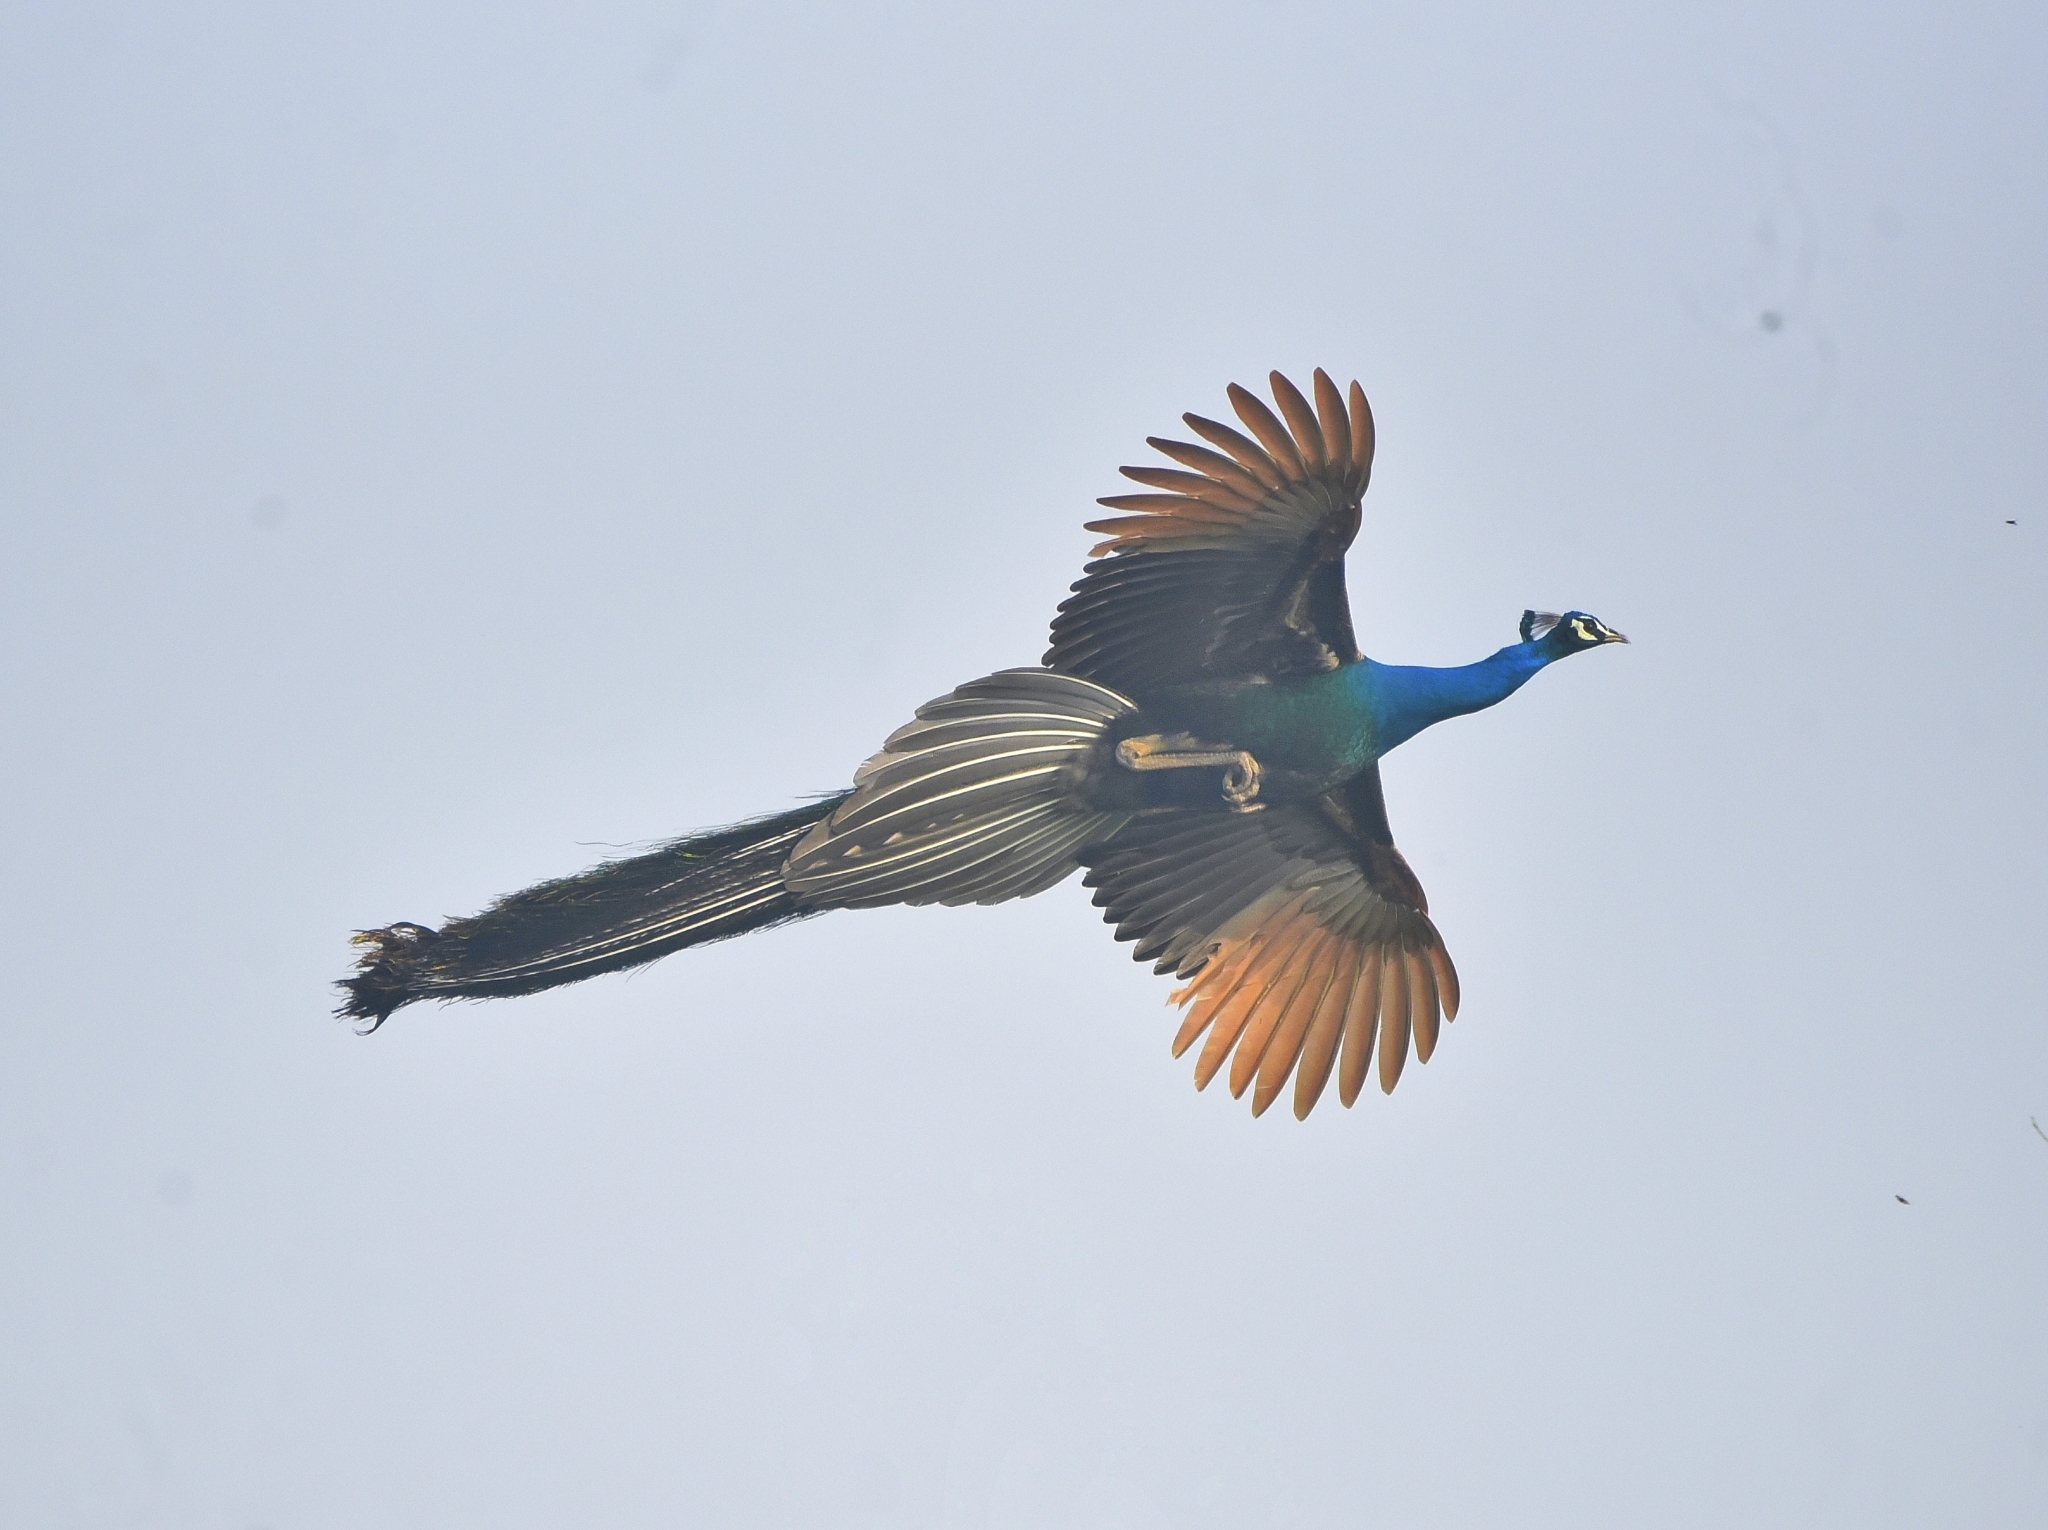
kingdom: Animalia
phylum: Chordata
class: Aves
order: Galliformes
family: Phasianidae
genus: Pavo
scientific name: Pavo cristatus
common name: Indian peafowl
